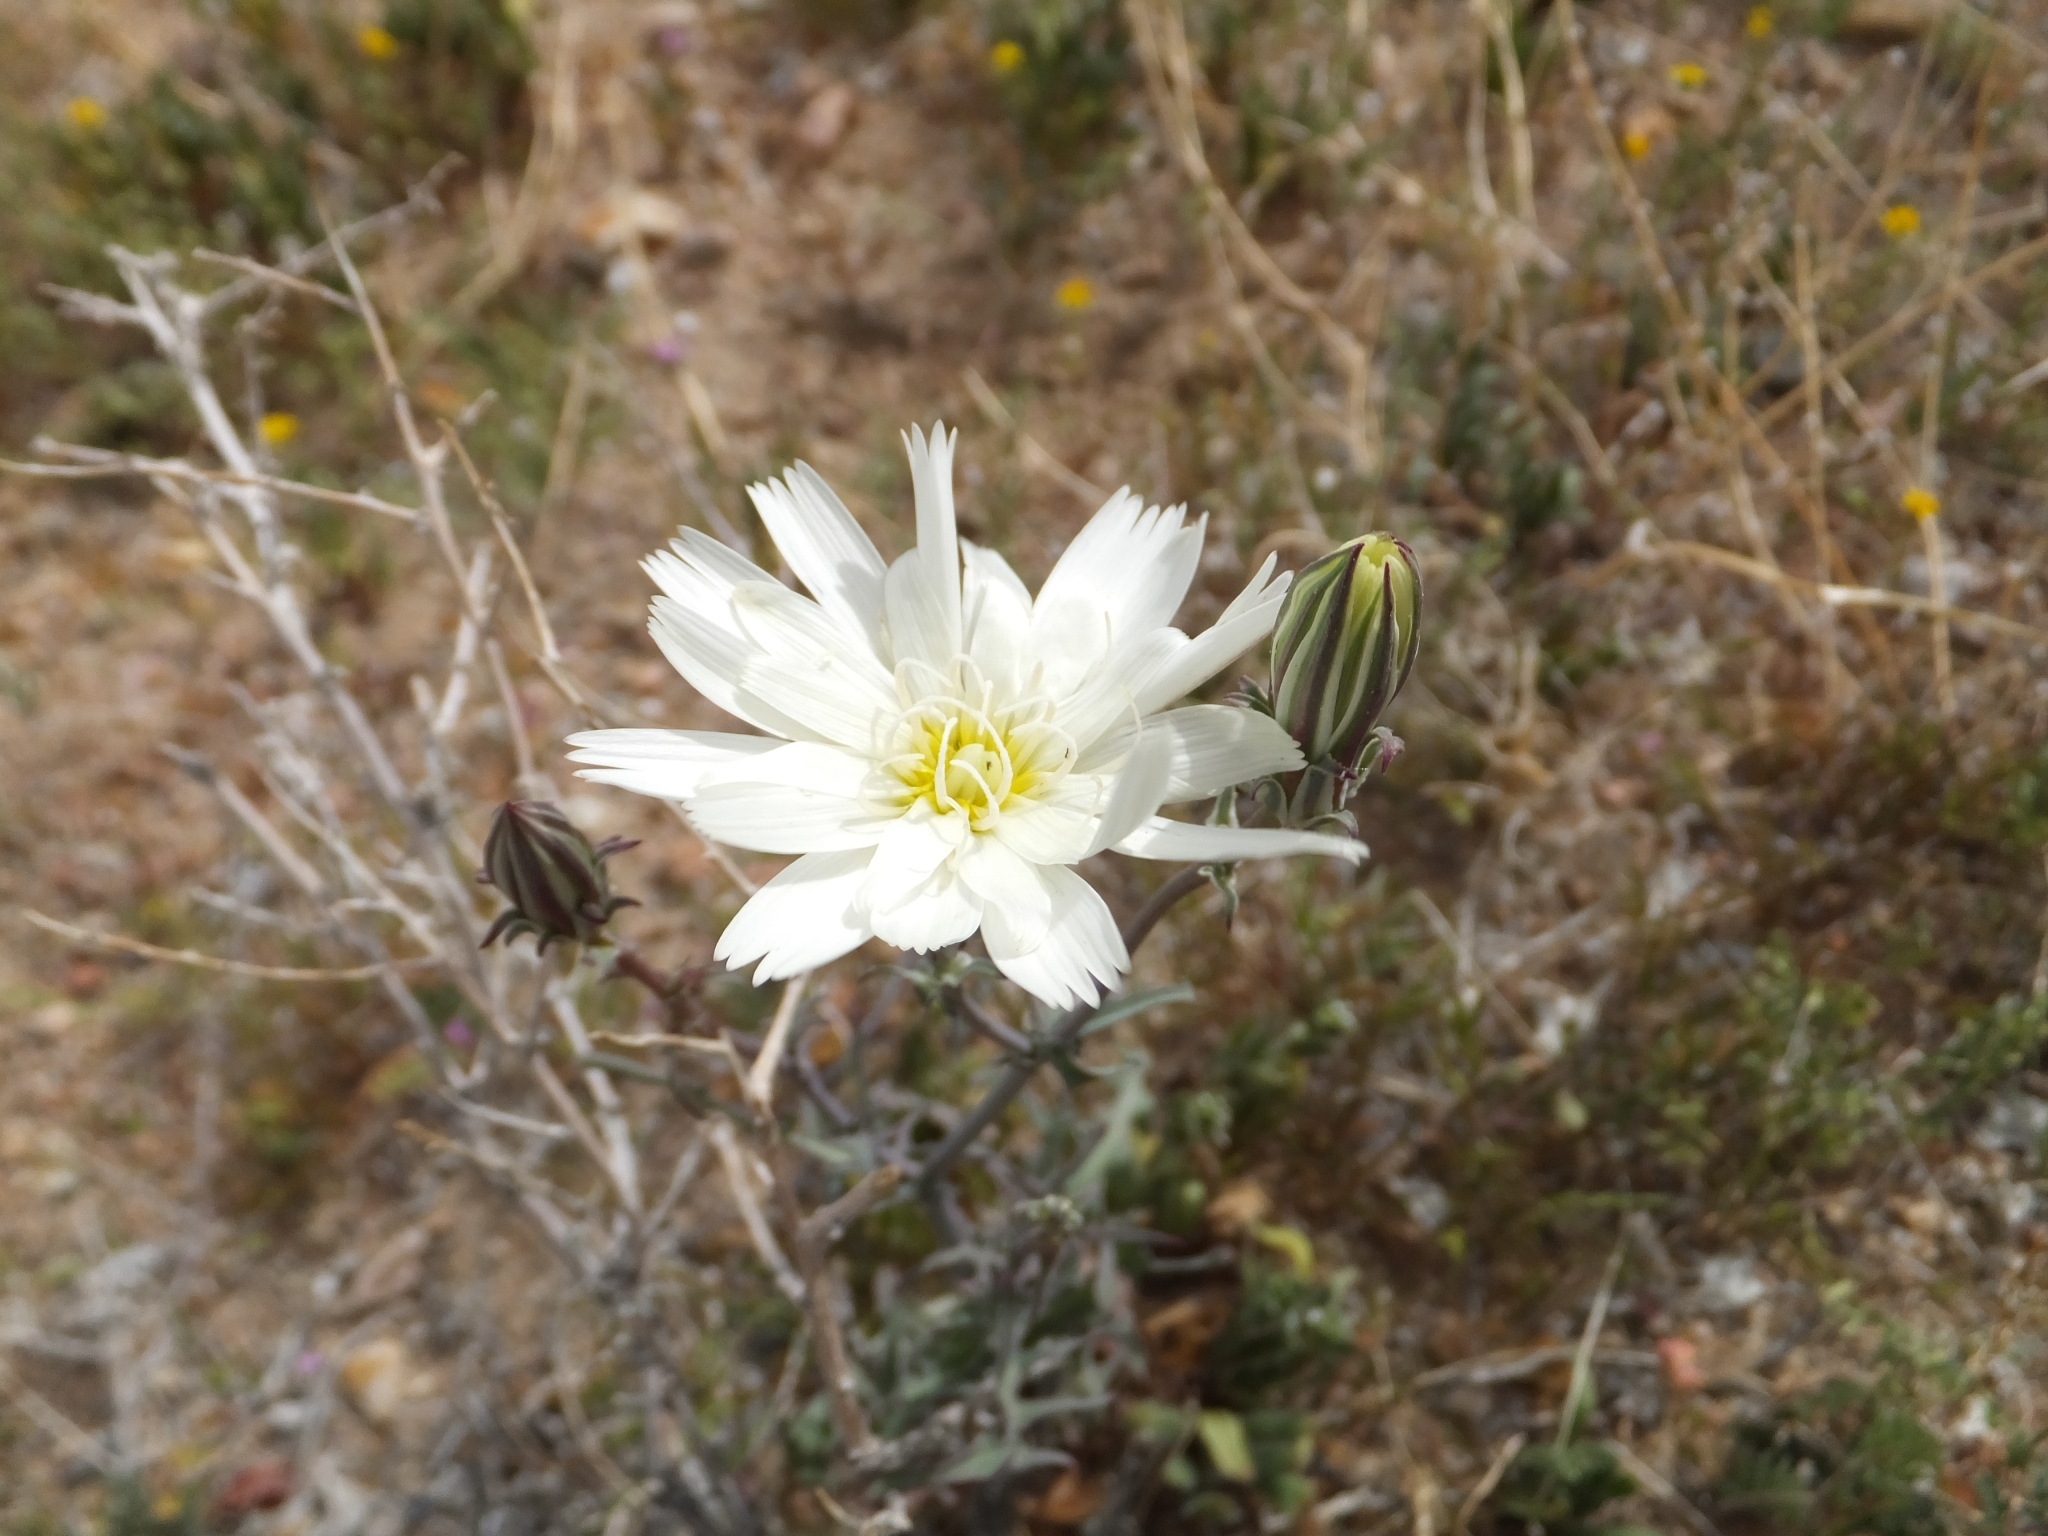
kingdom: Plantae
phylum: Tracheophyta
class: Magnoliopsida
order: Asterales
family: Asteraceae
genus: Rafinesquia
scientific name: Rafinesquia neomexicana
